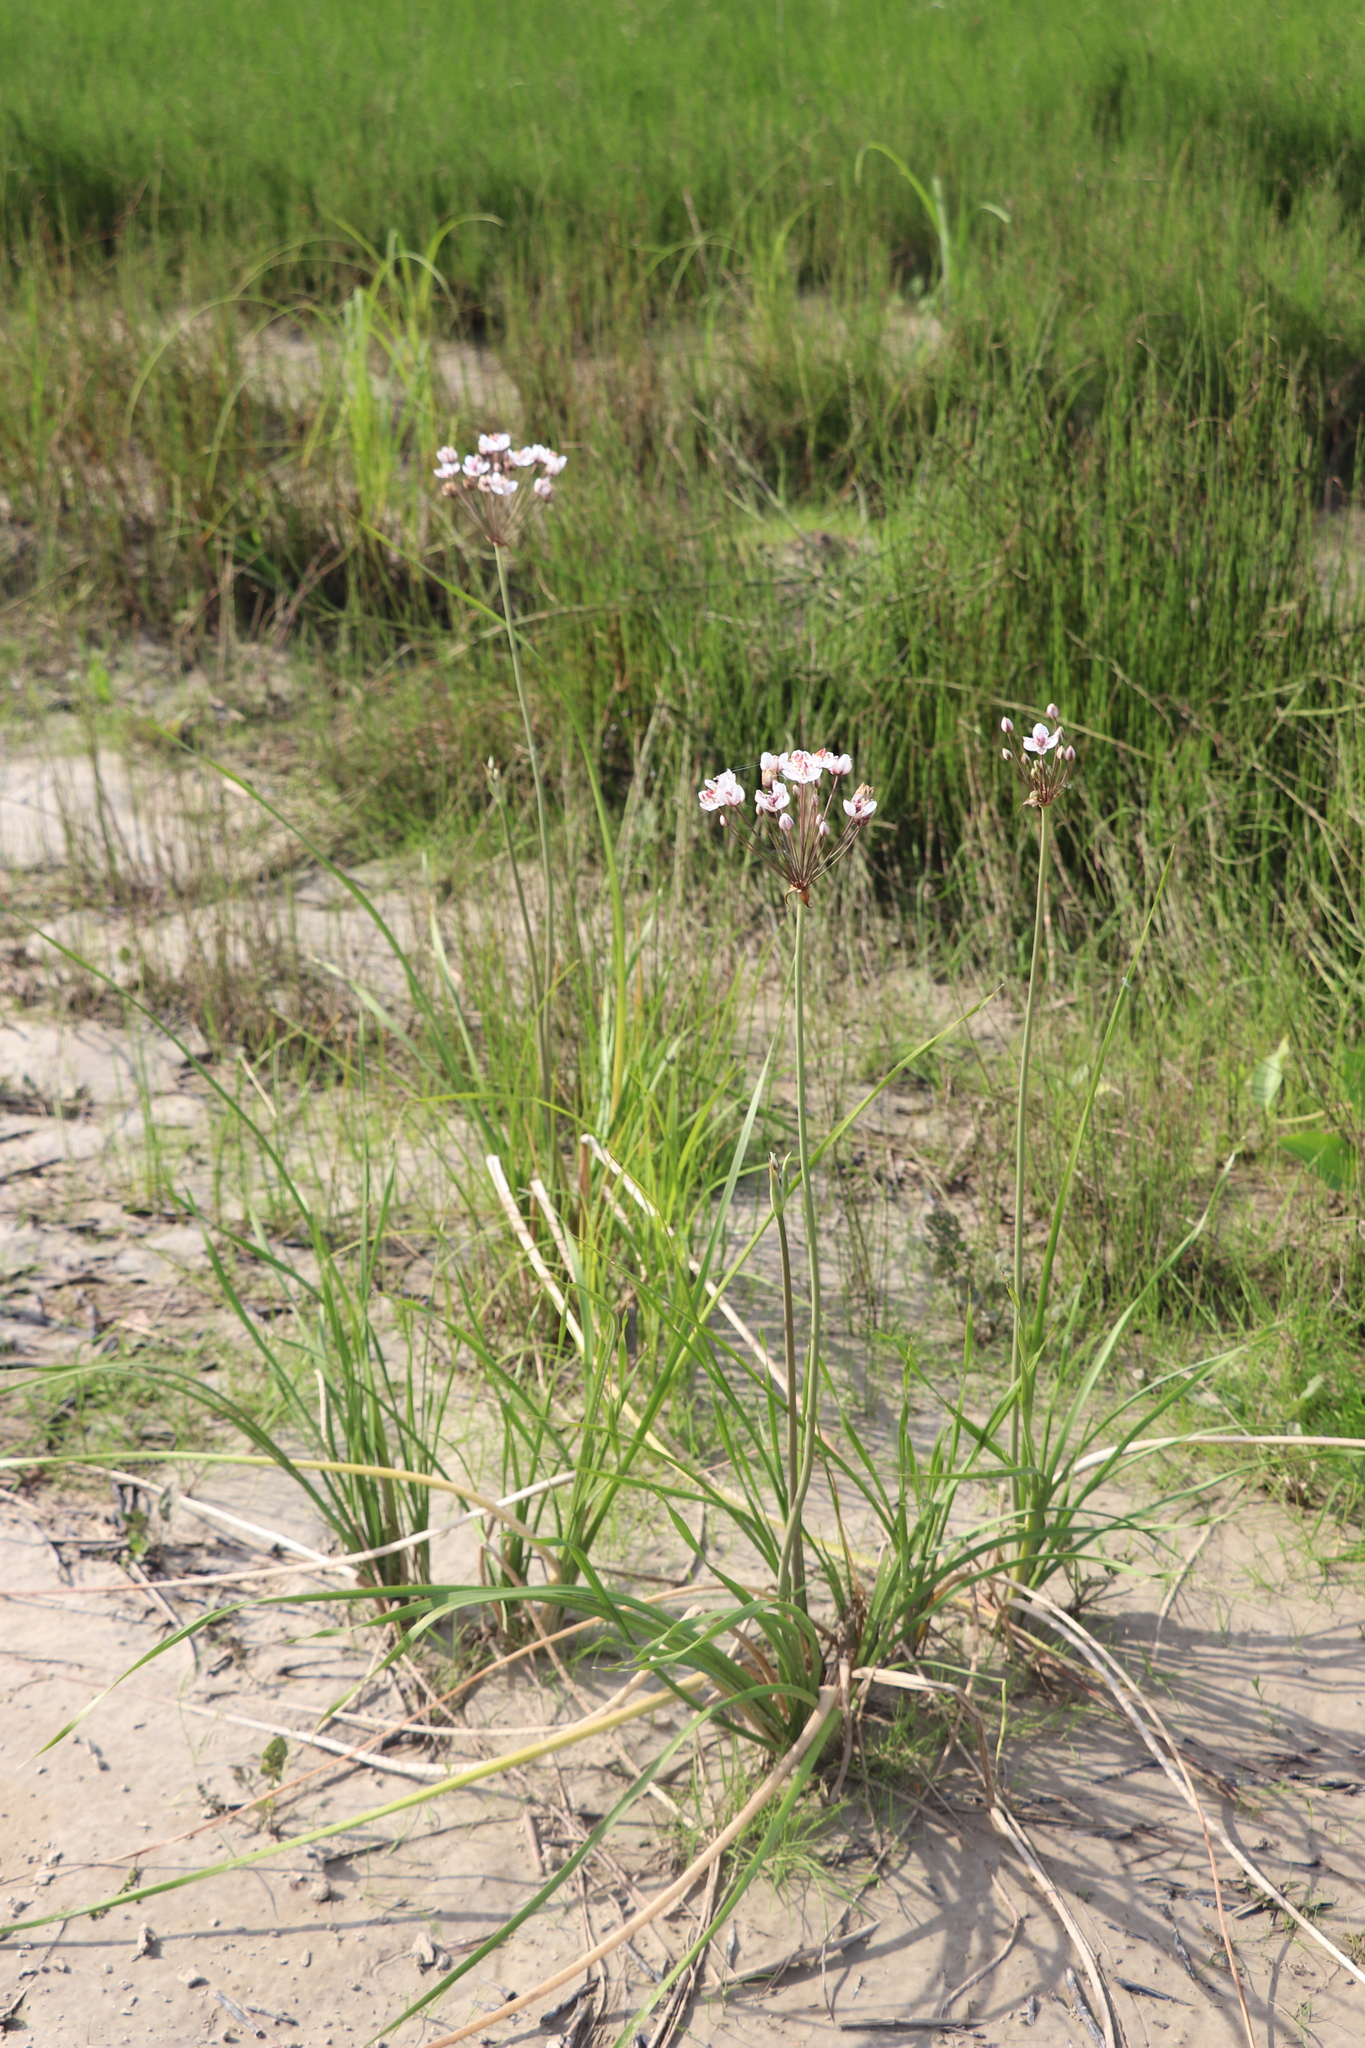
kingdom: Plantae
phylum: Tracheophyta
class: Liliopsida
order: Alismatales
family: Butomaceae
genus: Butomus
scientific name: Butomus umbellatus
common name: Flowering-rush
